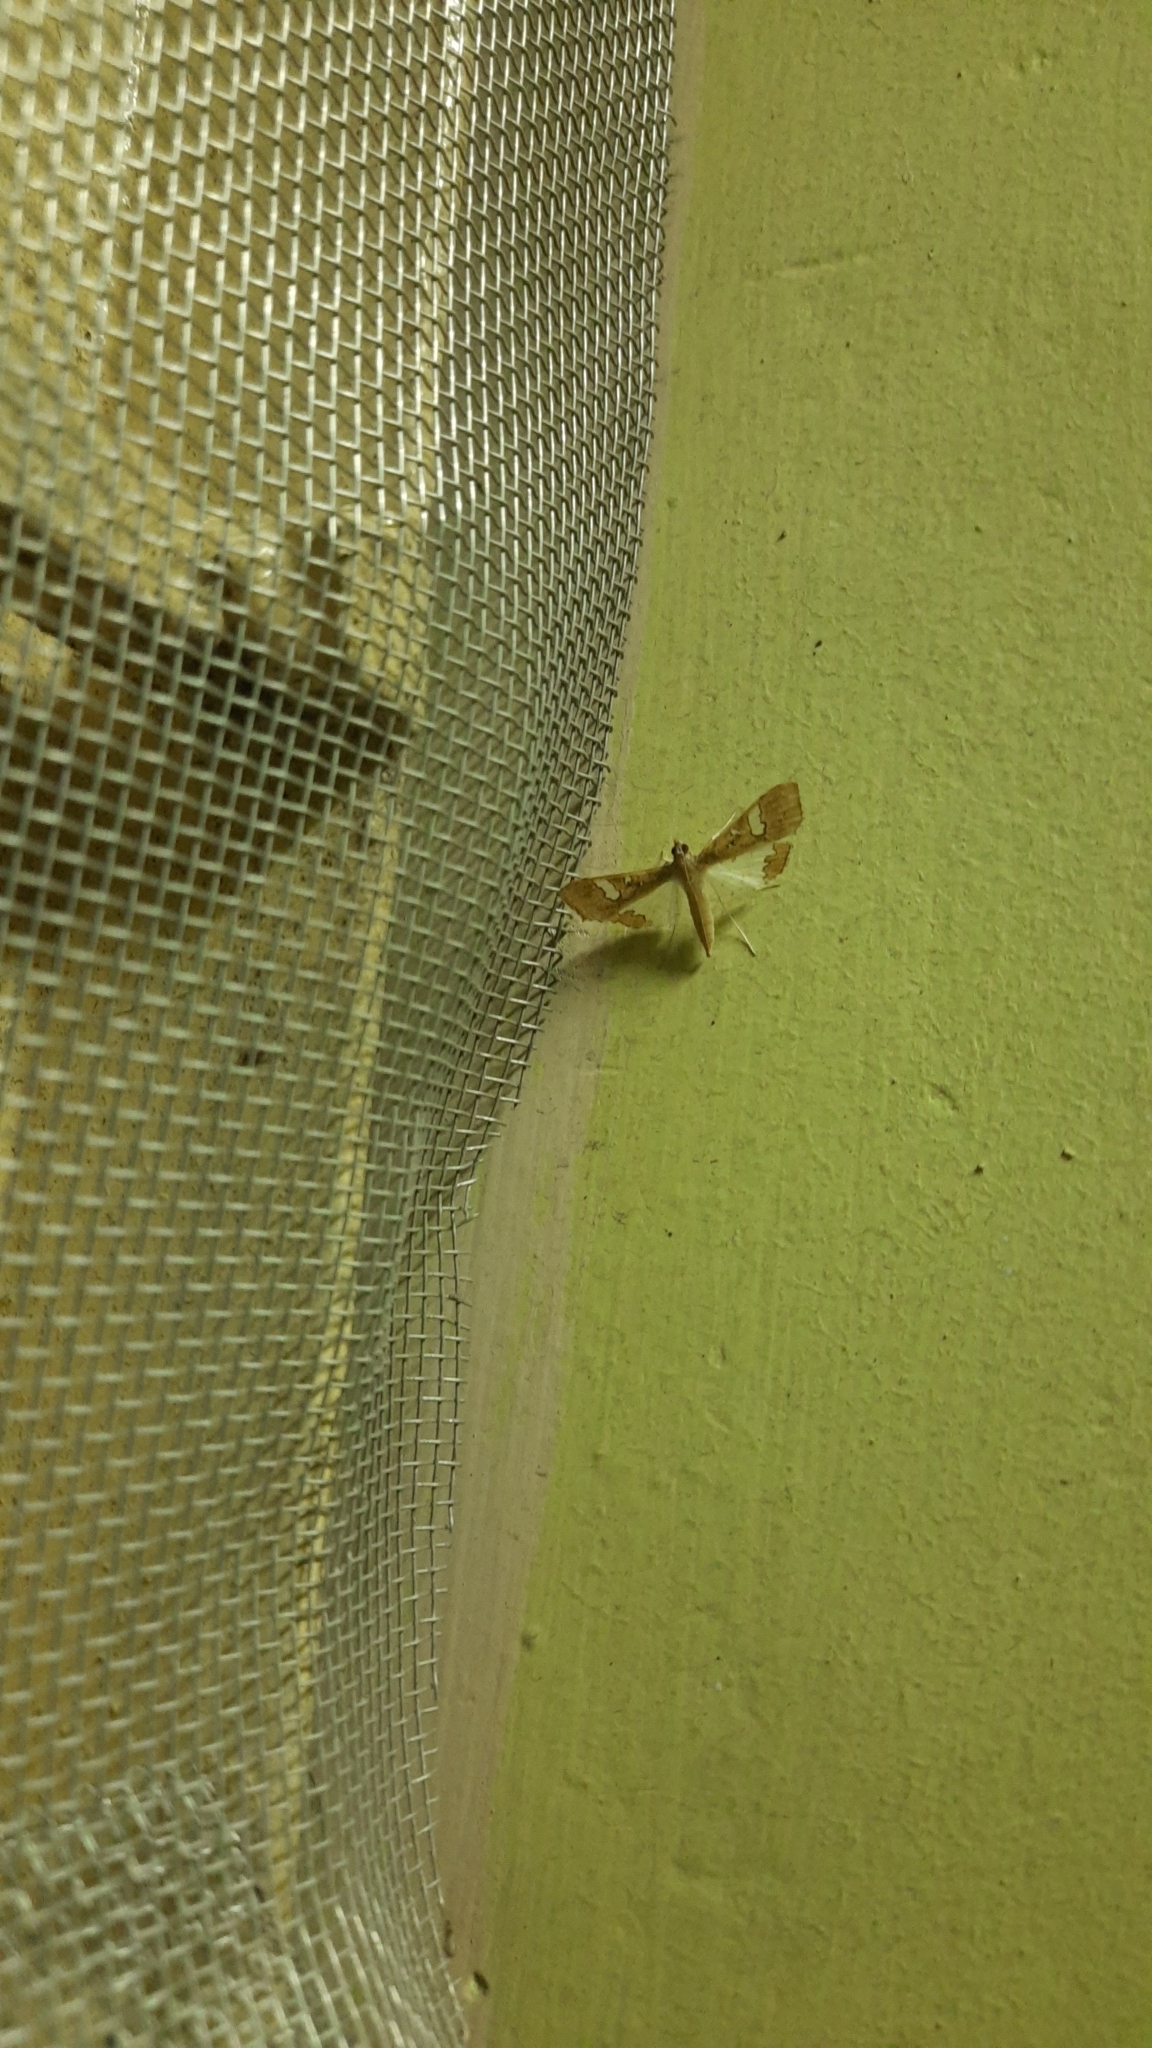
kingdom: Animalia
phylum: Arthropoda
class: Insecta
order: Lepidoptera
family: Crambidae
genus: Maruca
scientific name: Maruca vitrata
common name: Maruca pod borer
